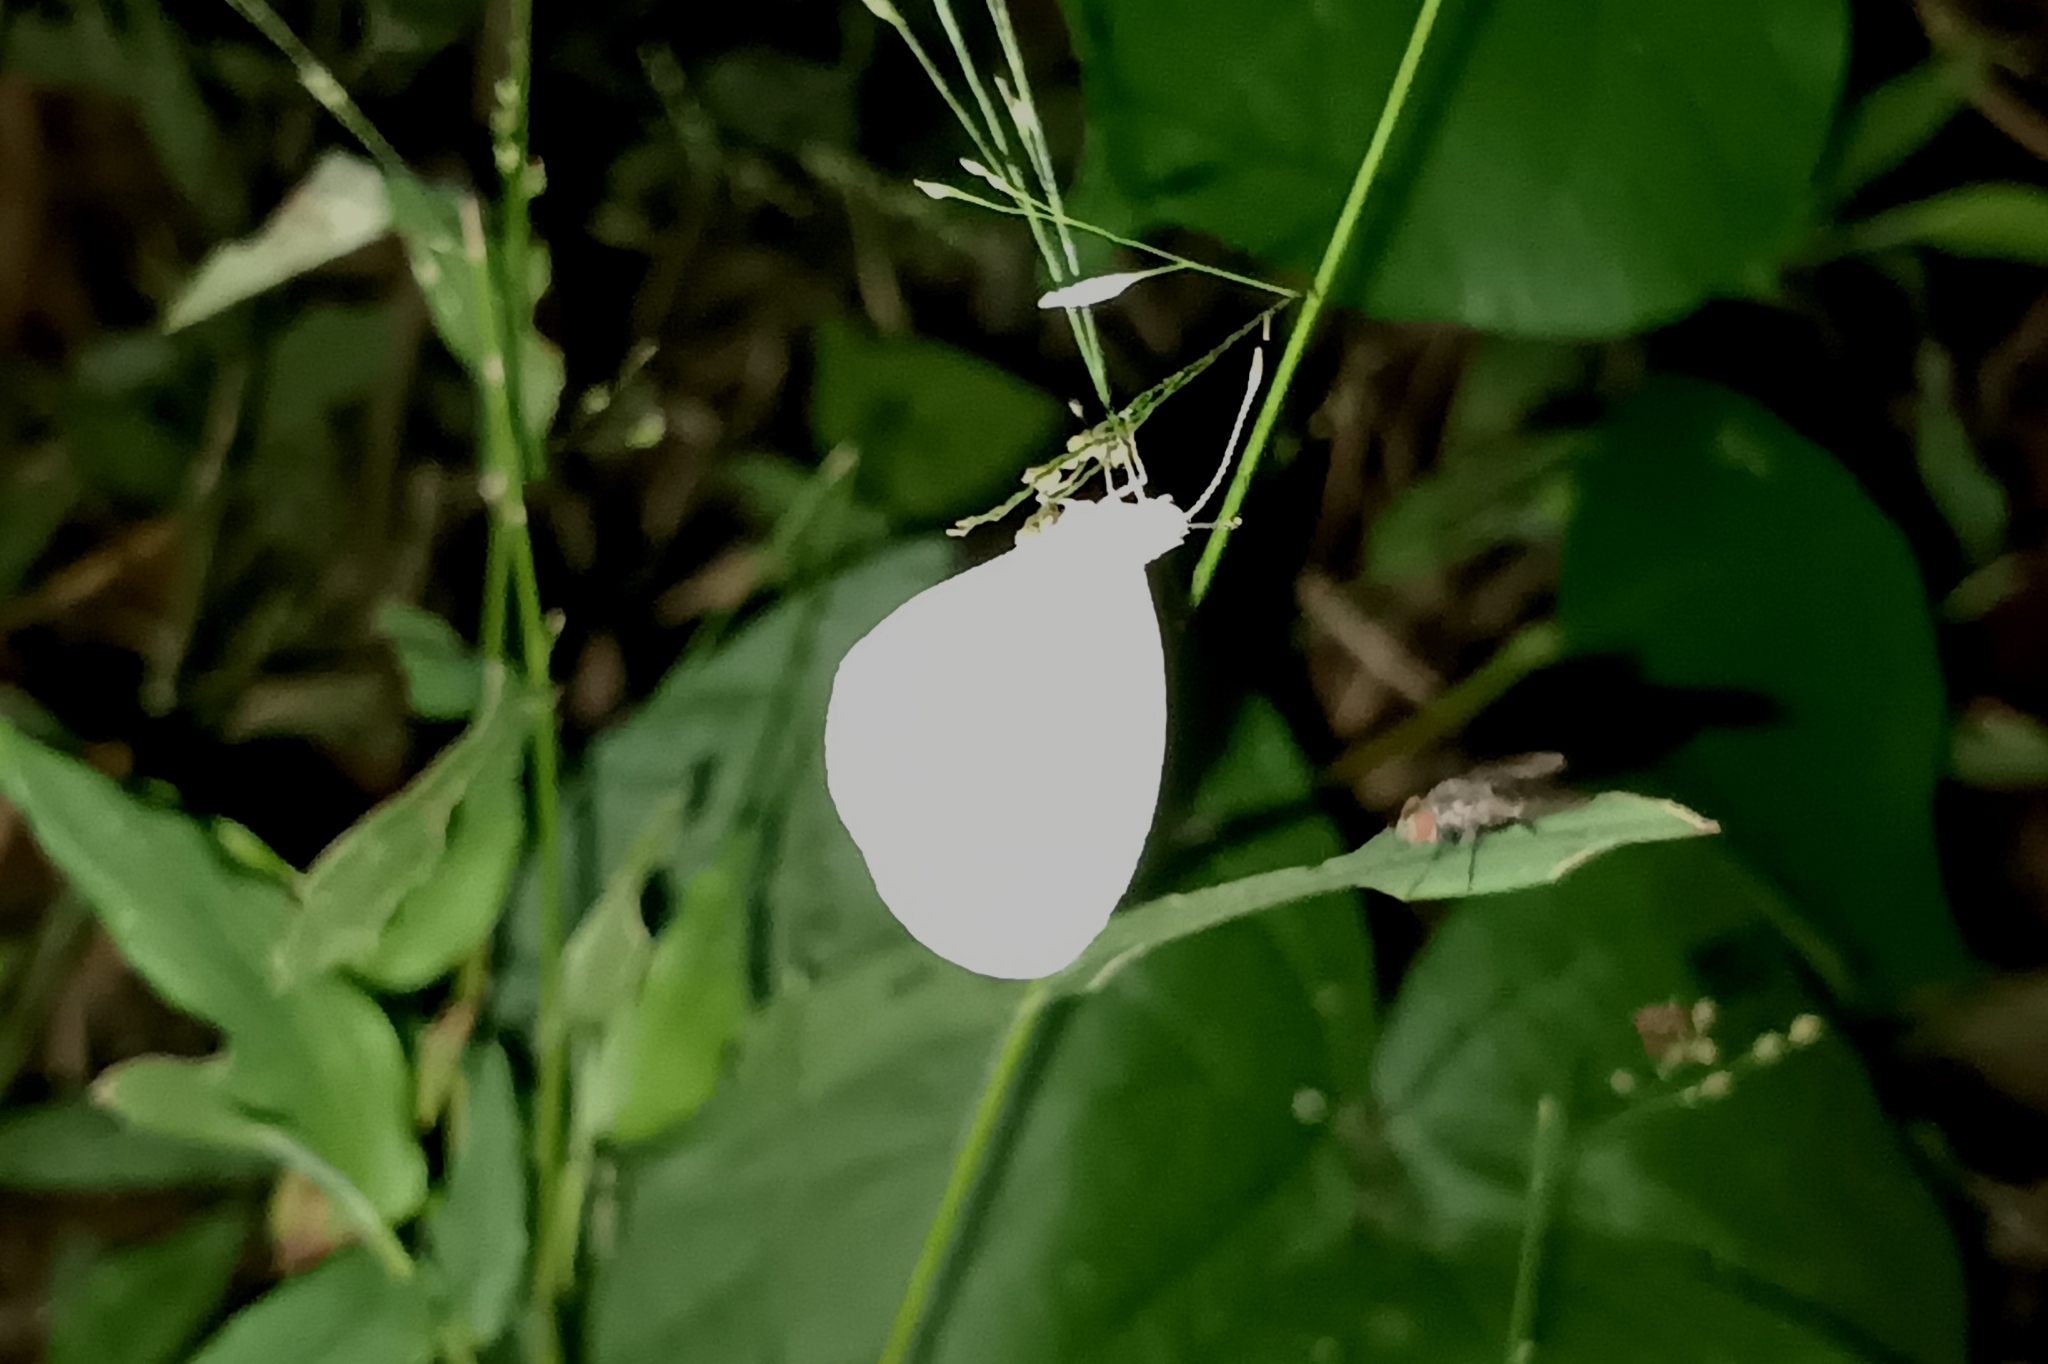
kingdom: Animalia
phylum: Arthropoda
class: Insecta
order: Lepidoptera
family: Pieridae
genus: Leptosia
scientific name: Leptosia nina
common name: Psyche
